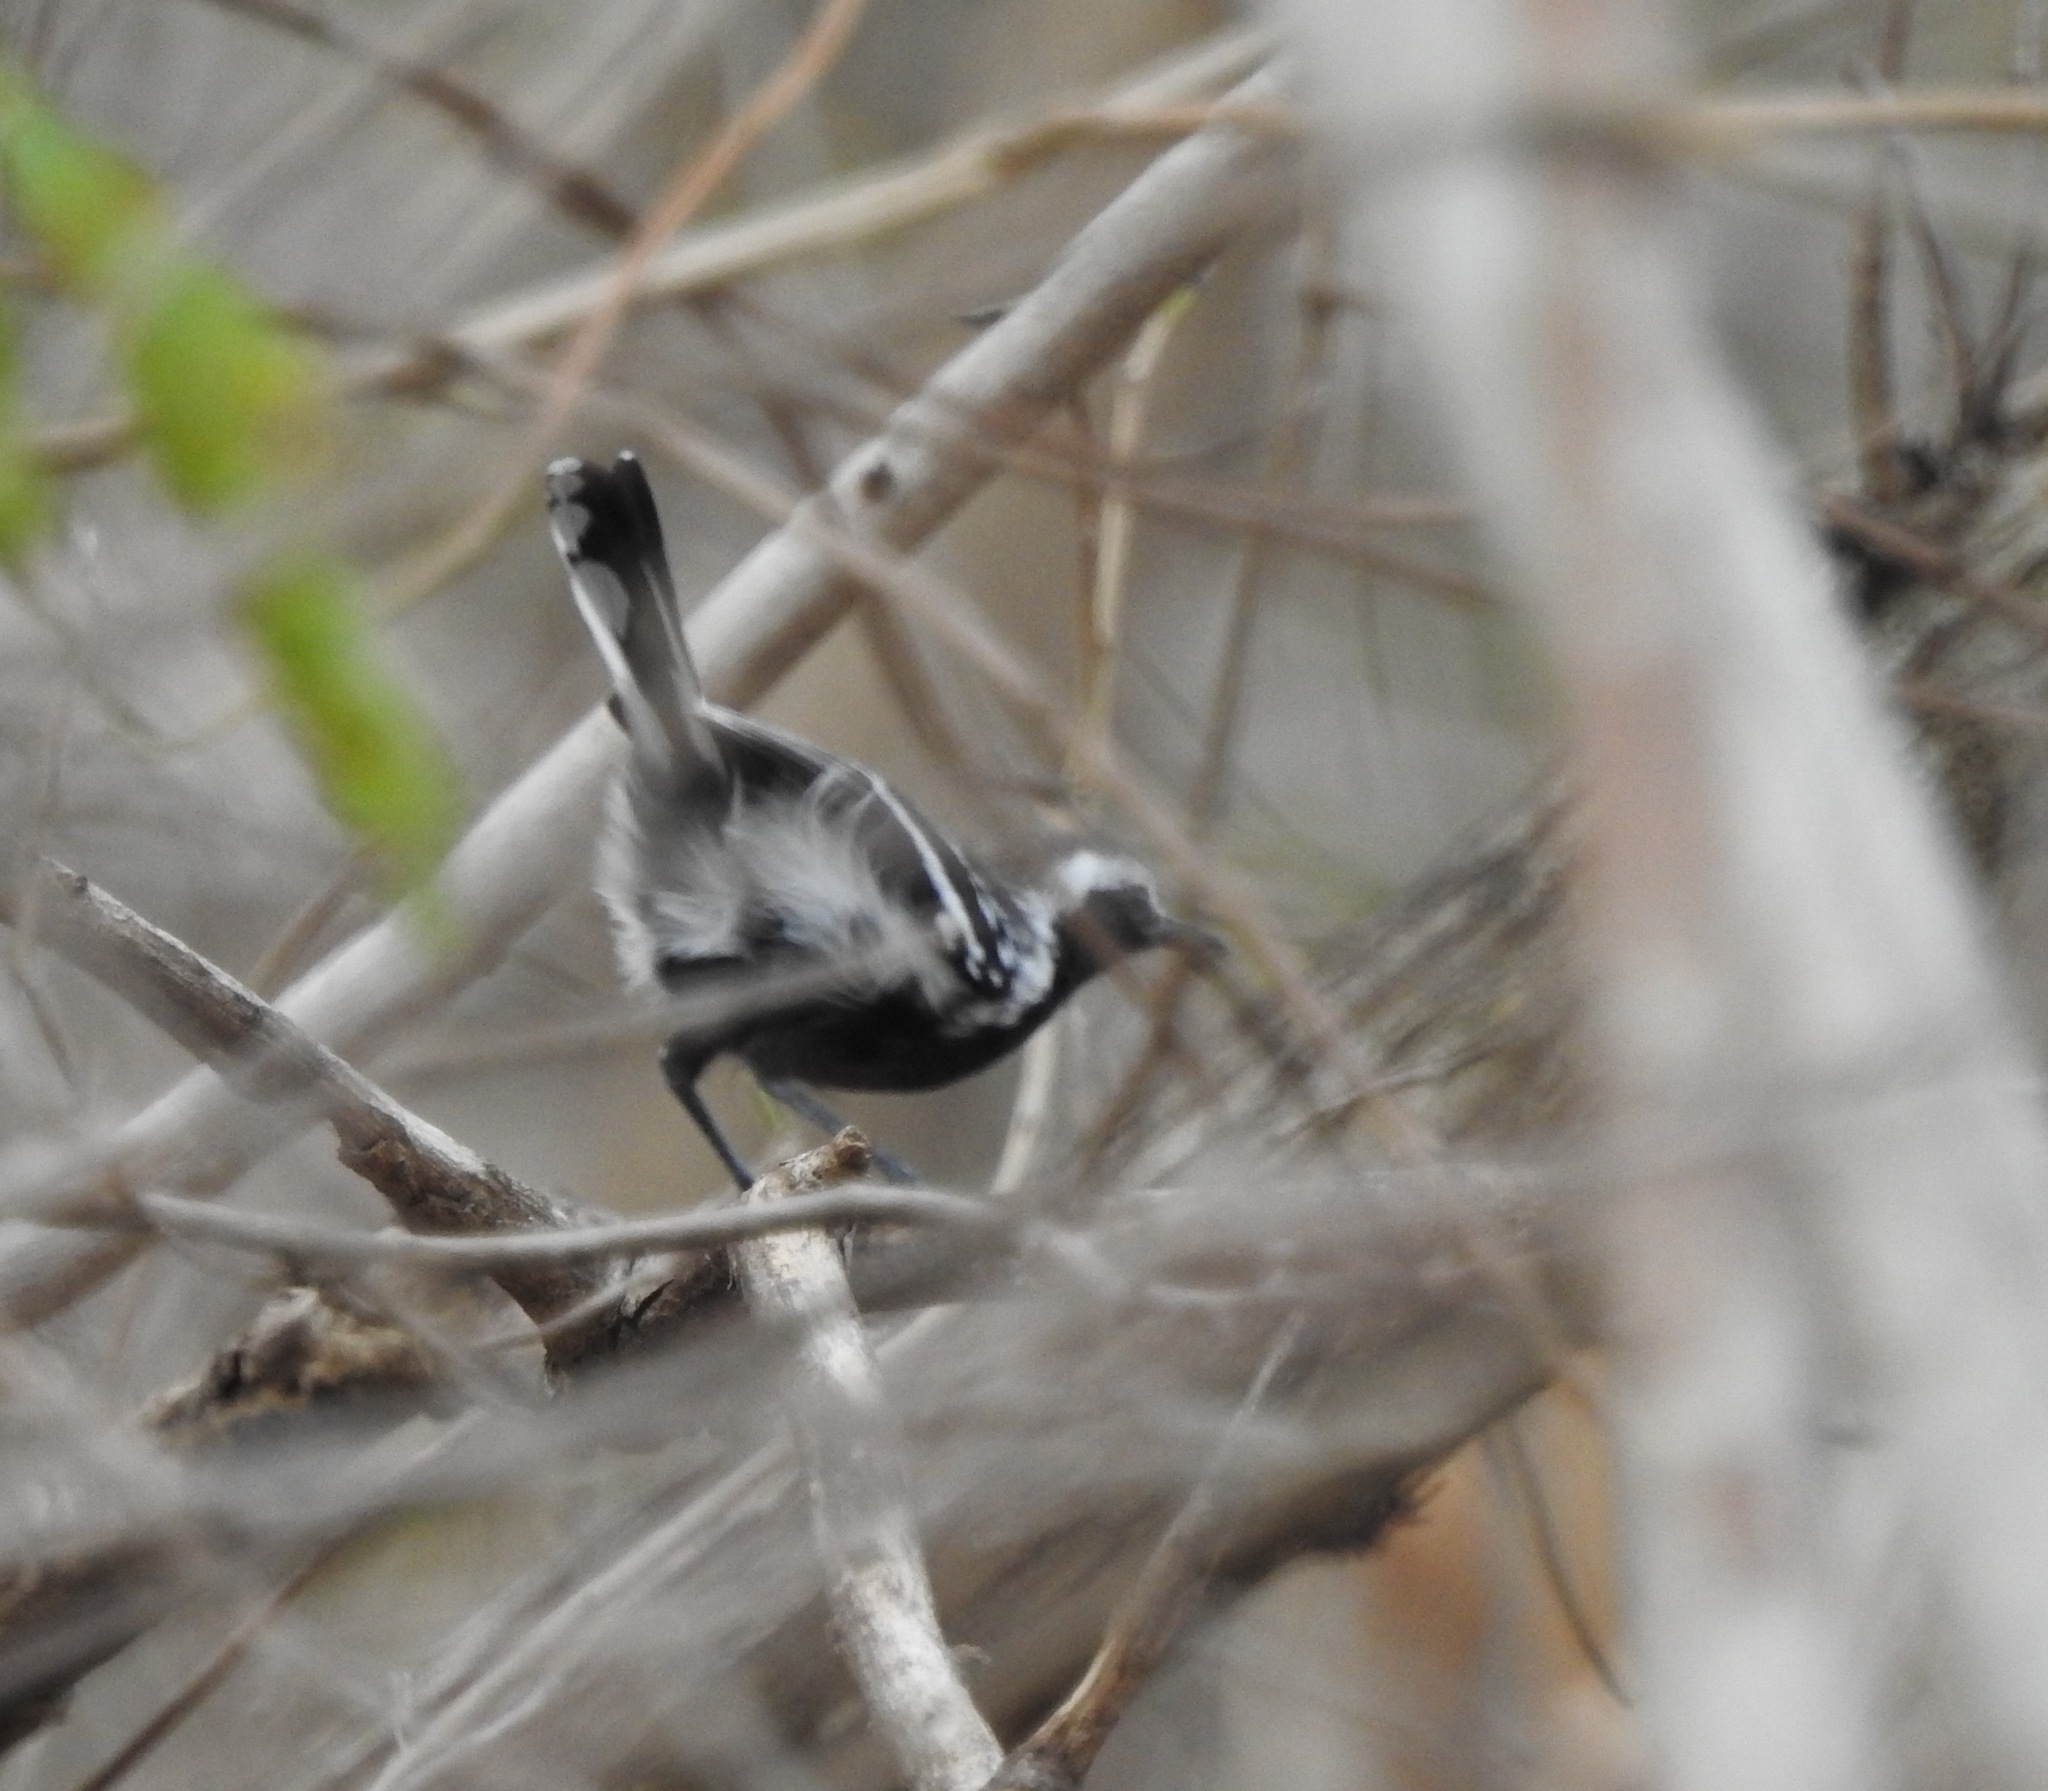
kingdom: Animalia
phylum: Chordata
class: Aves
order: Passeriformes
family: Thamnophilidae
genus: Formicivora
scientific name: Formicivora intermedia
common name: Northern white-fringed antwren
